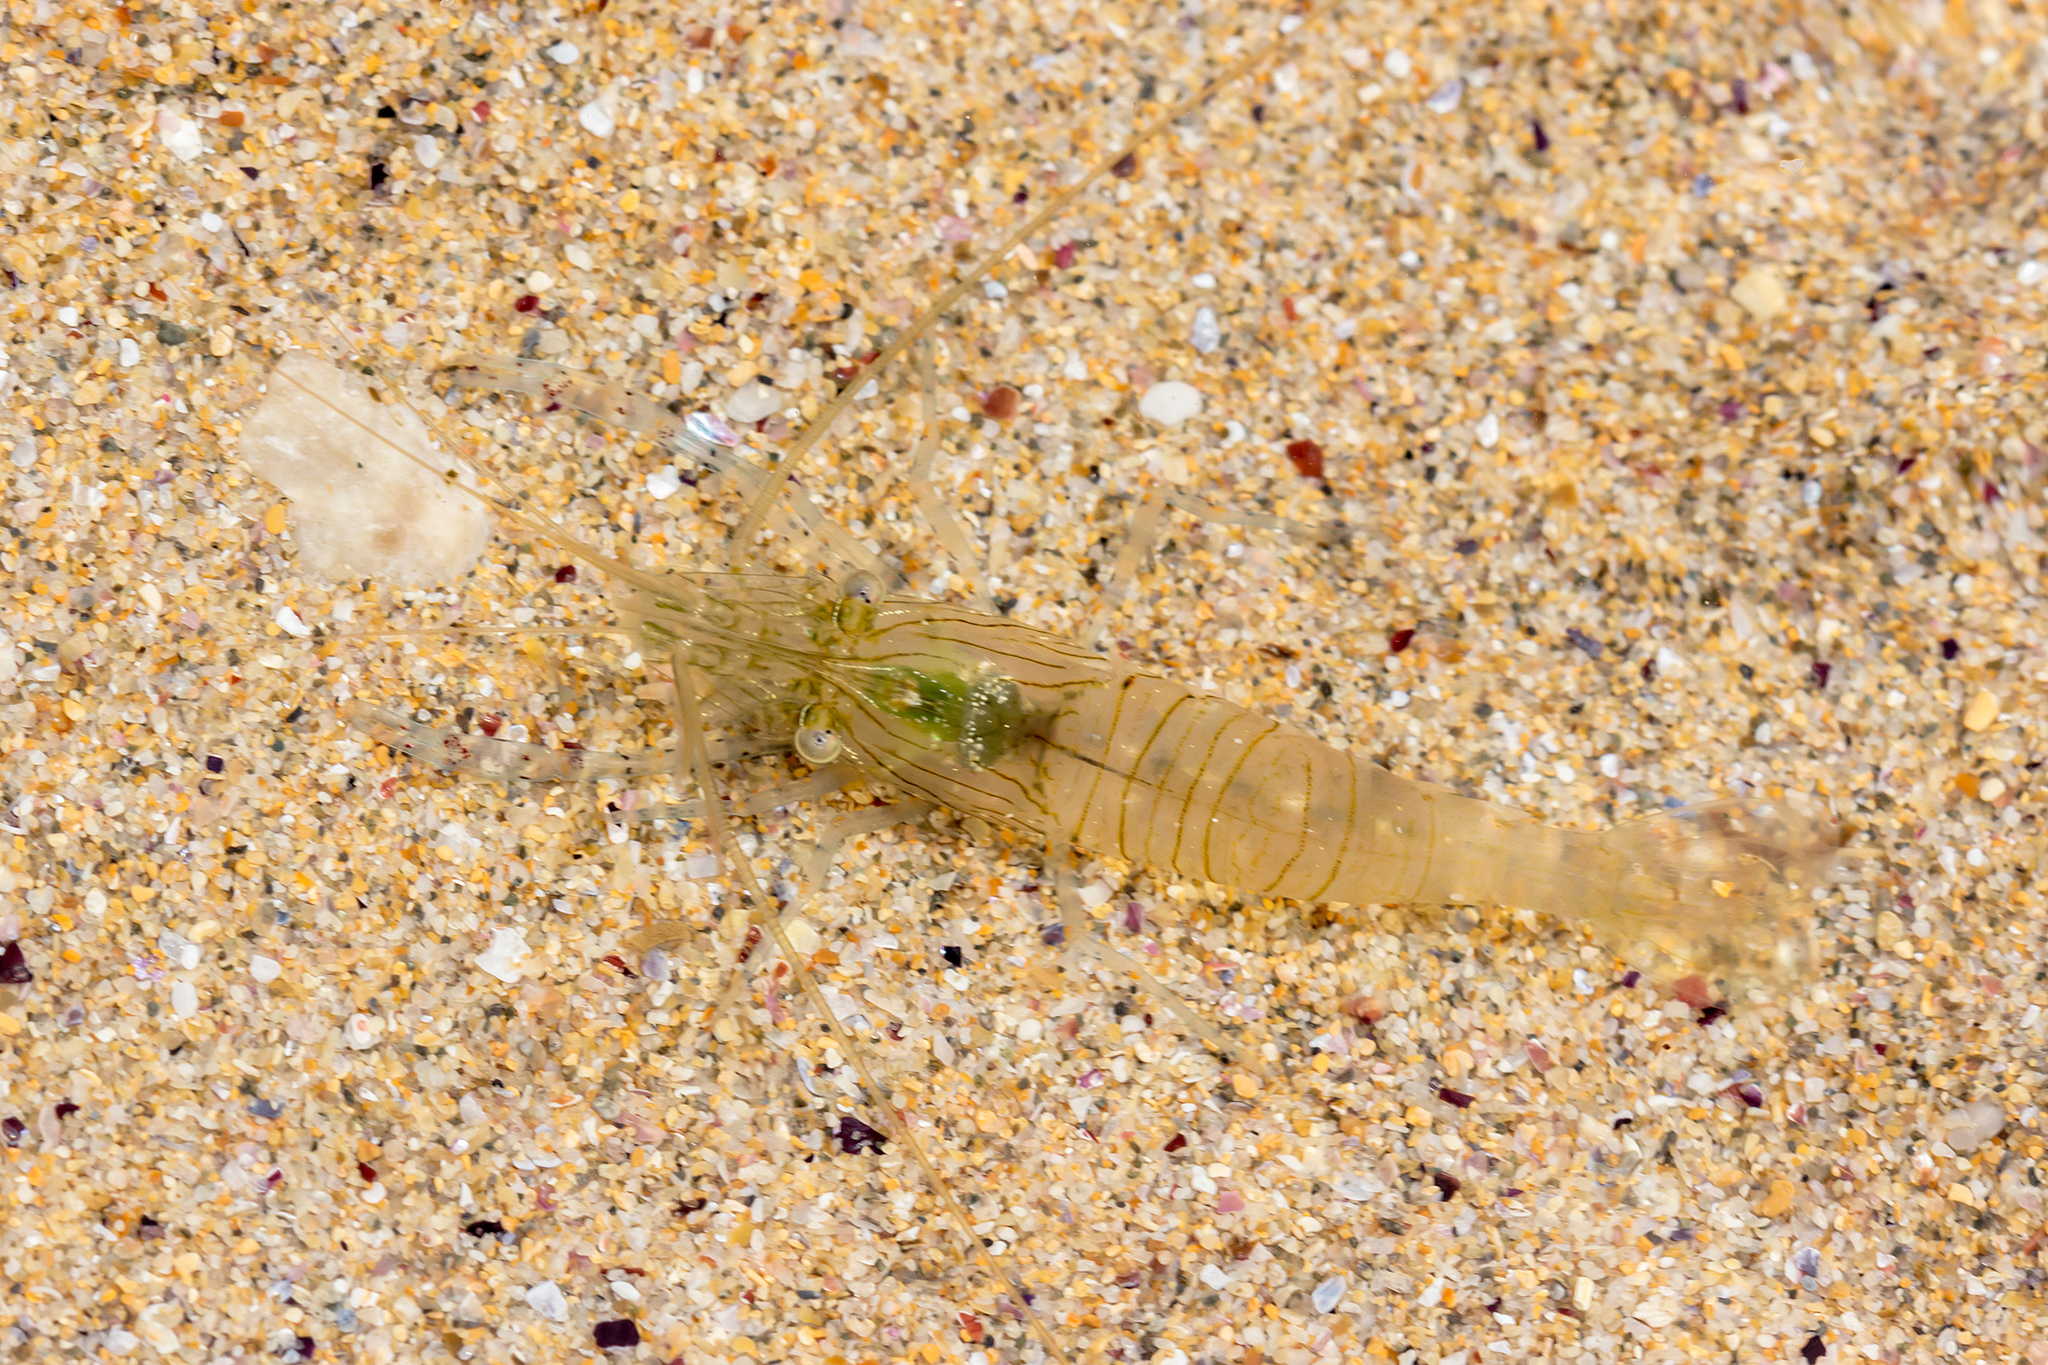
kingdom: Animalia
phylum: Arthropoda
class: Malacostraca
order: Decapoda
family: Palaemonidae
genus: Palaemon
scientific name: Palaemon litoreus
